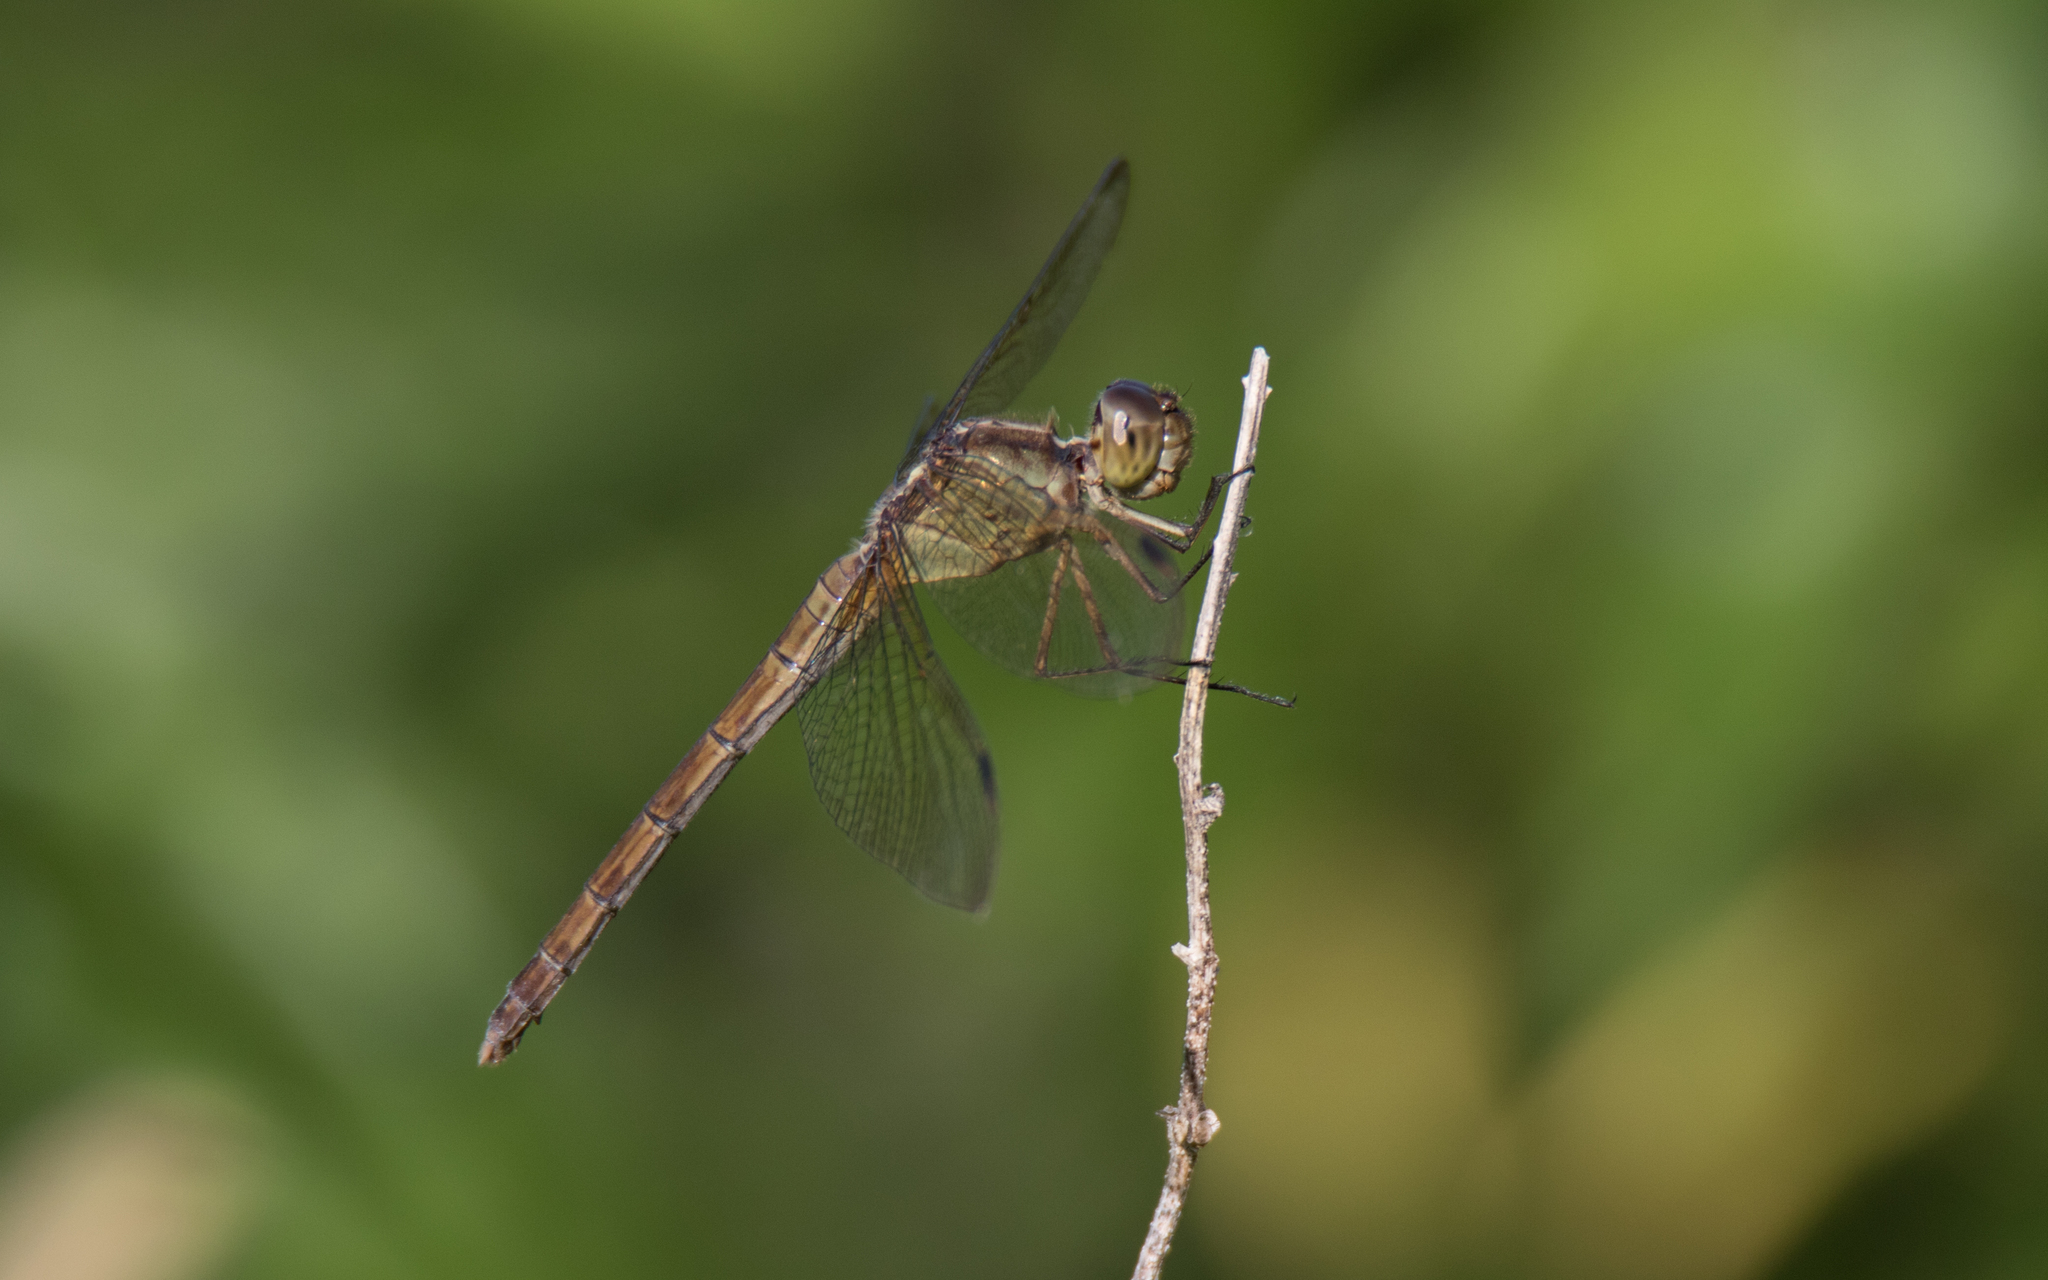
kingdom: Animalia
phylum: Arthropoda
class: Insecta
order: Odonata
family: Libellulidae
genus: Erythrodiplax
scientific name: Erythrodiplax umbrata
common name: Band-winged dragonlet
